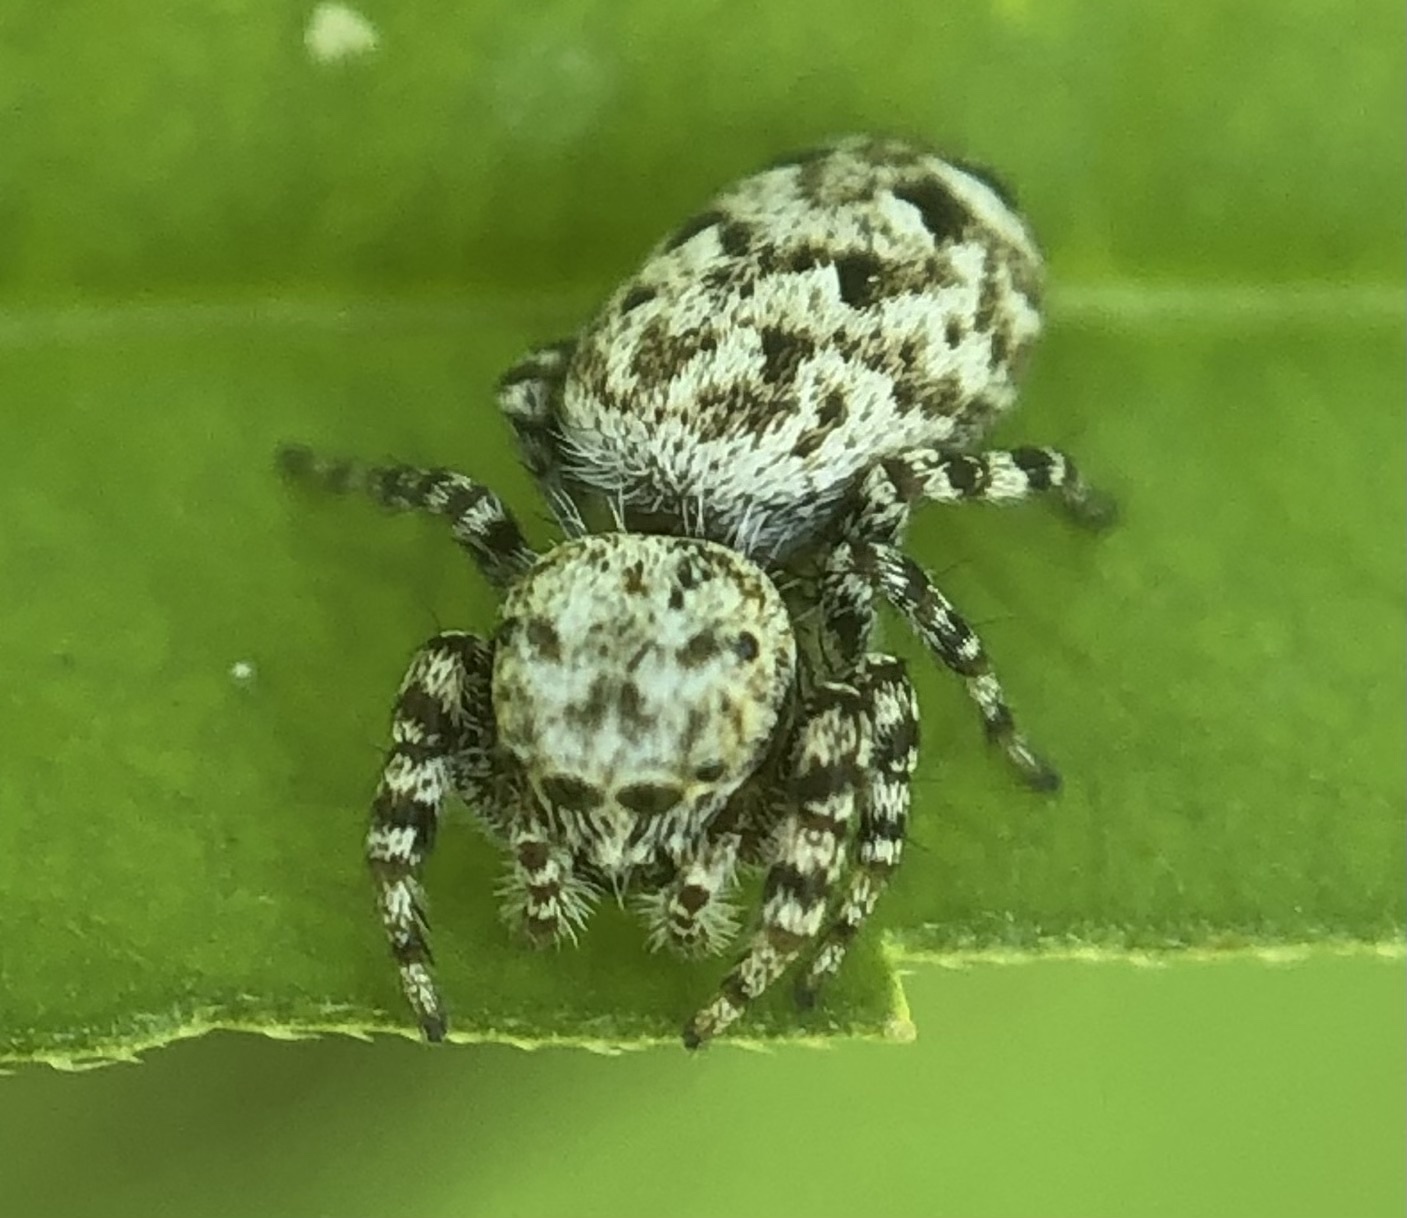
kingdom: Animalia
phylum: Arthropoda
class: Arachnida
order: Araneae
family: Salticidae
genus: Pelegrina
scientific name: Pelegrina galathea
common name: Jumping spiders
